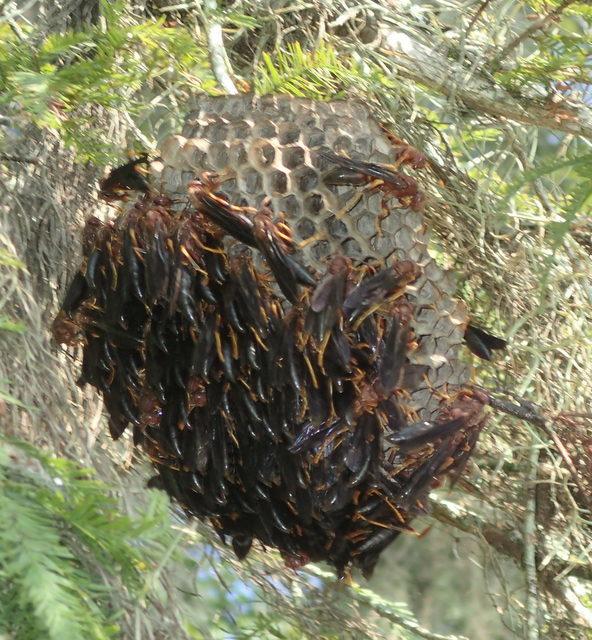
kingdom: Animalia
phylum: Arthropoda
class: Insecta
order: Hymenoptera
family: Eumenidae
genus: Polistes
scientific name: Polistes annularis
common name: Ringed paper wasp
